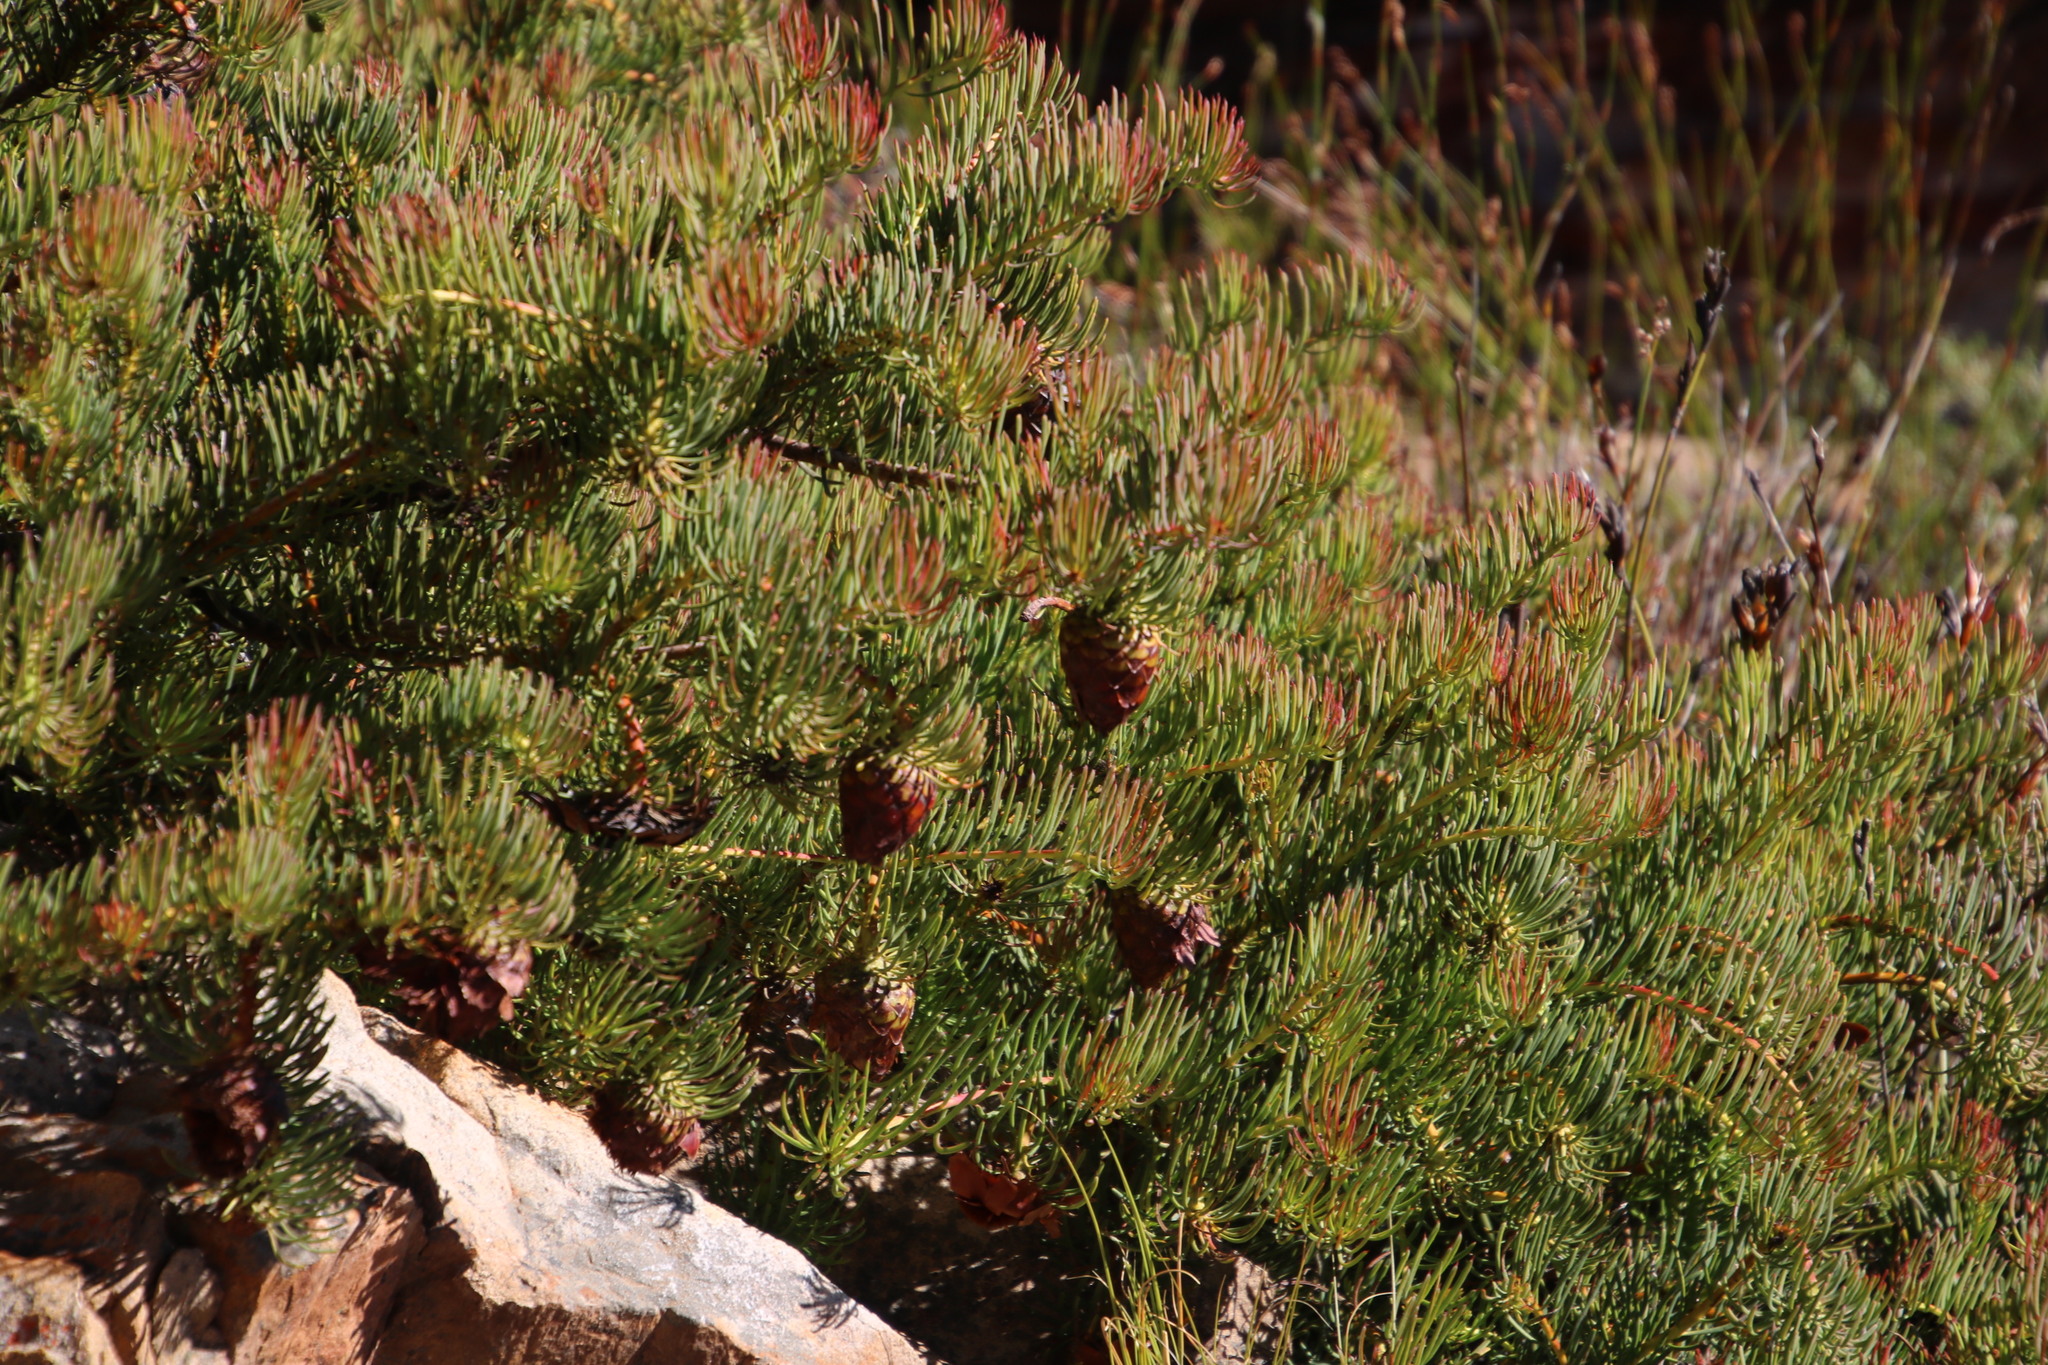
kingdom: Plantae
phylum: Tracheophyta
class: Magnoliopsida
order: Proteales
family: Proteaceae
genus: Protea
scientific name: Protea witzenbergiana
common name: Swan sugarbush
